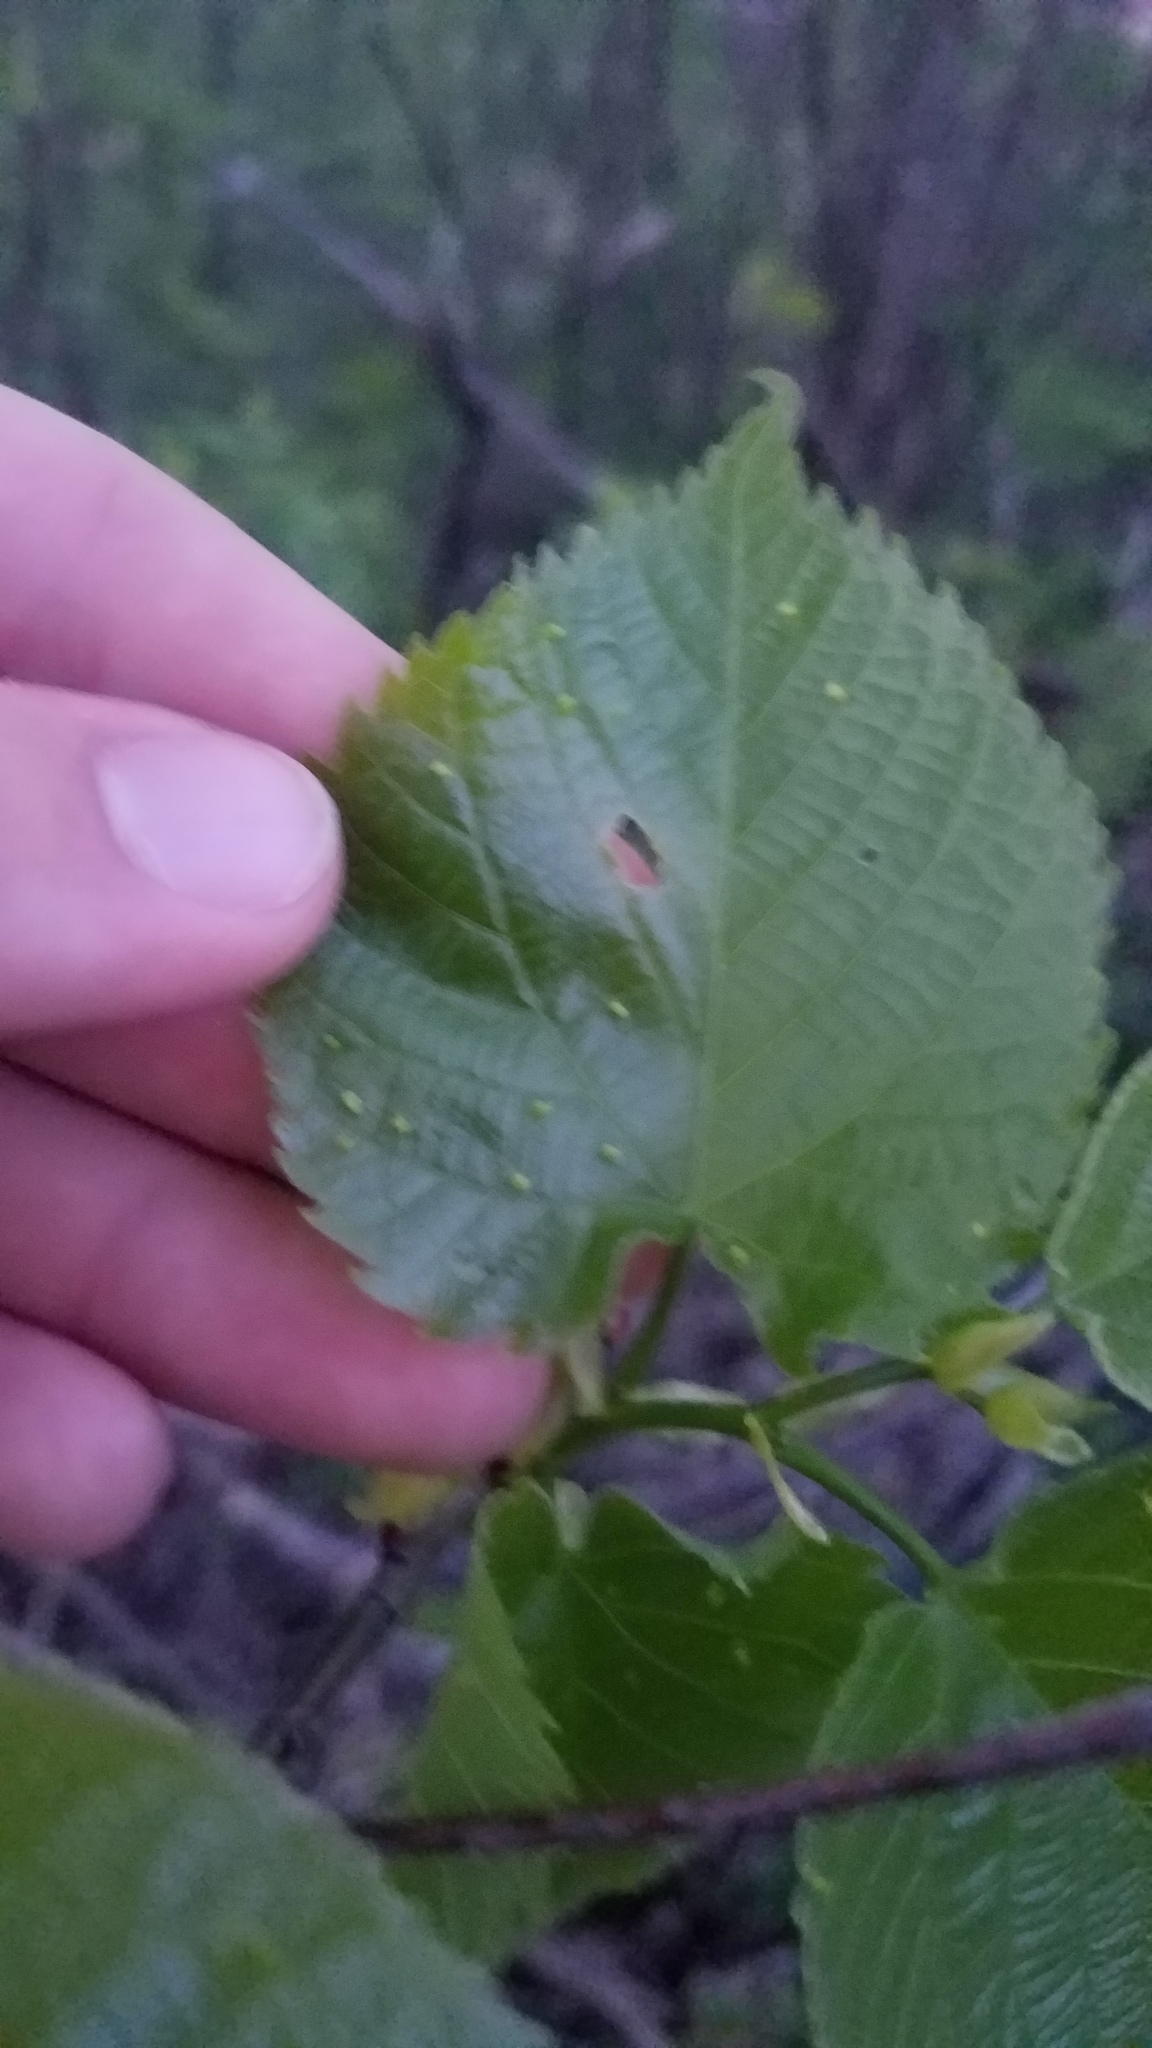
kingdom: Plantae
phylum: Tracheophyta
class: Magnoliopsida
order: Malvales
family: Malvaceae
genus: Tilia
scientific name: Tilia americana
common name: Basswood
